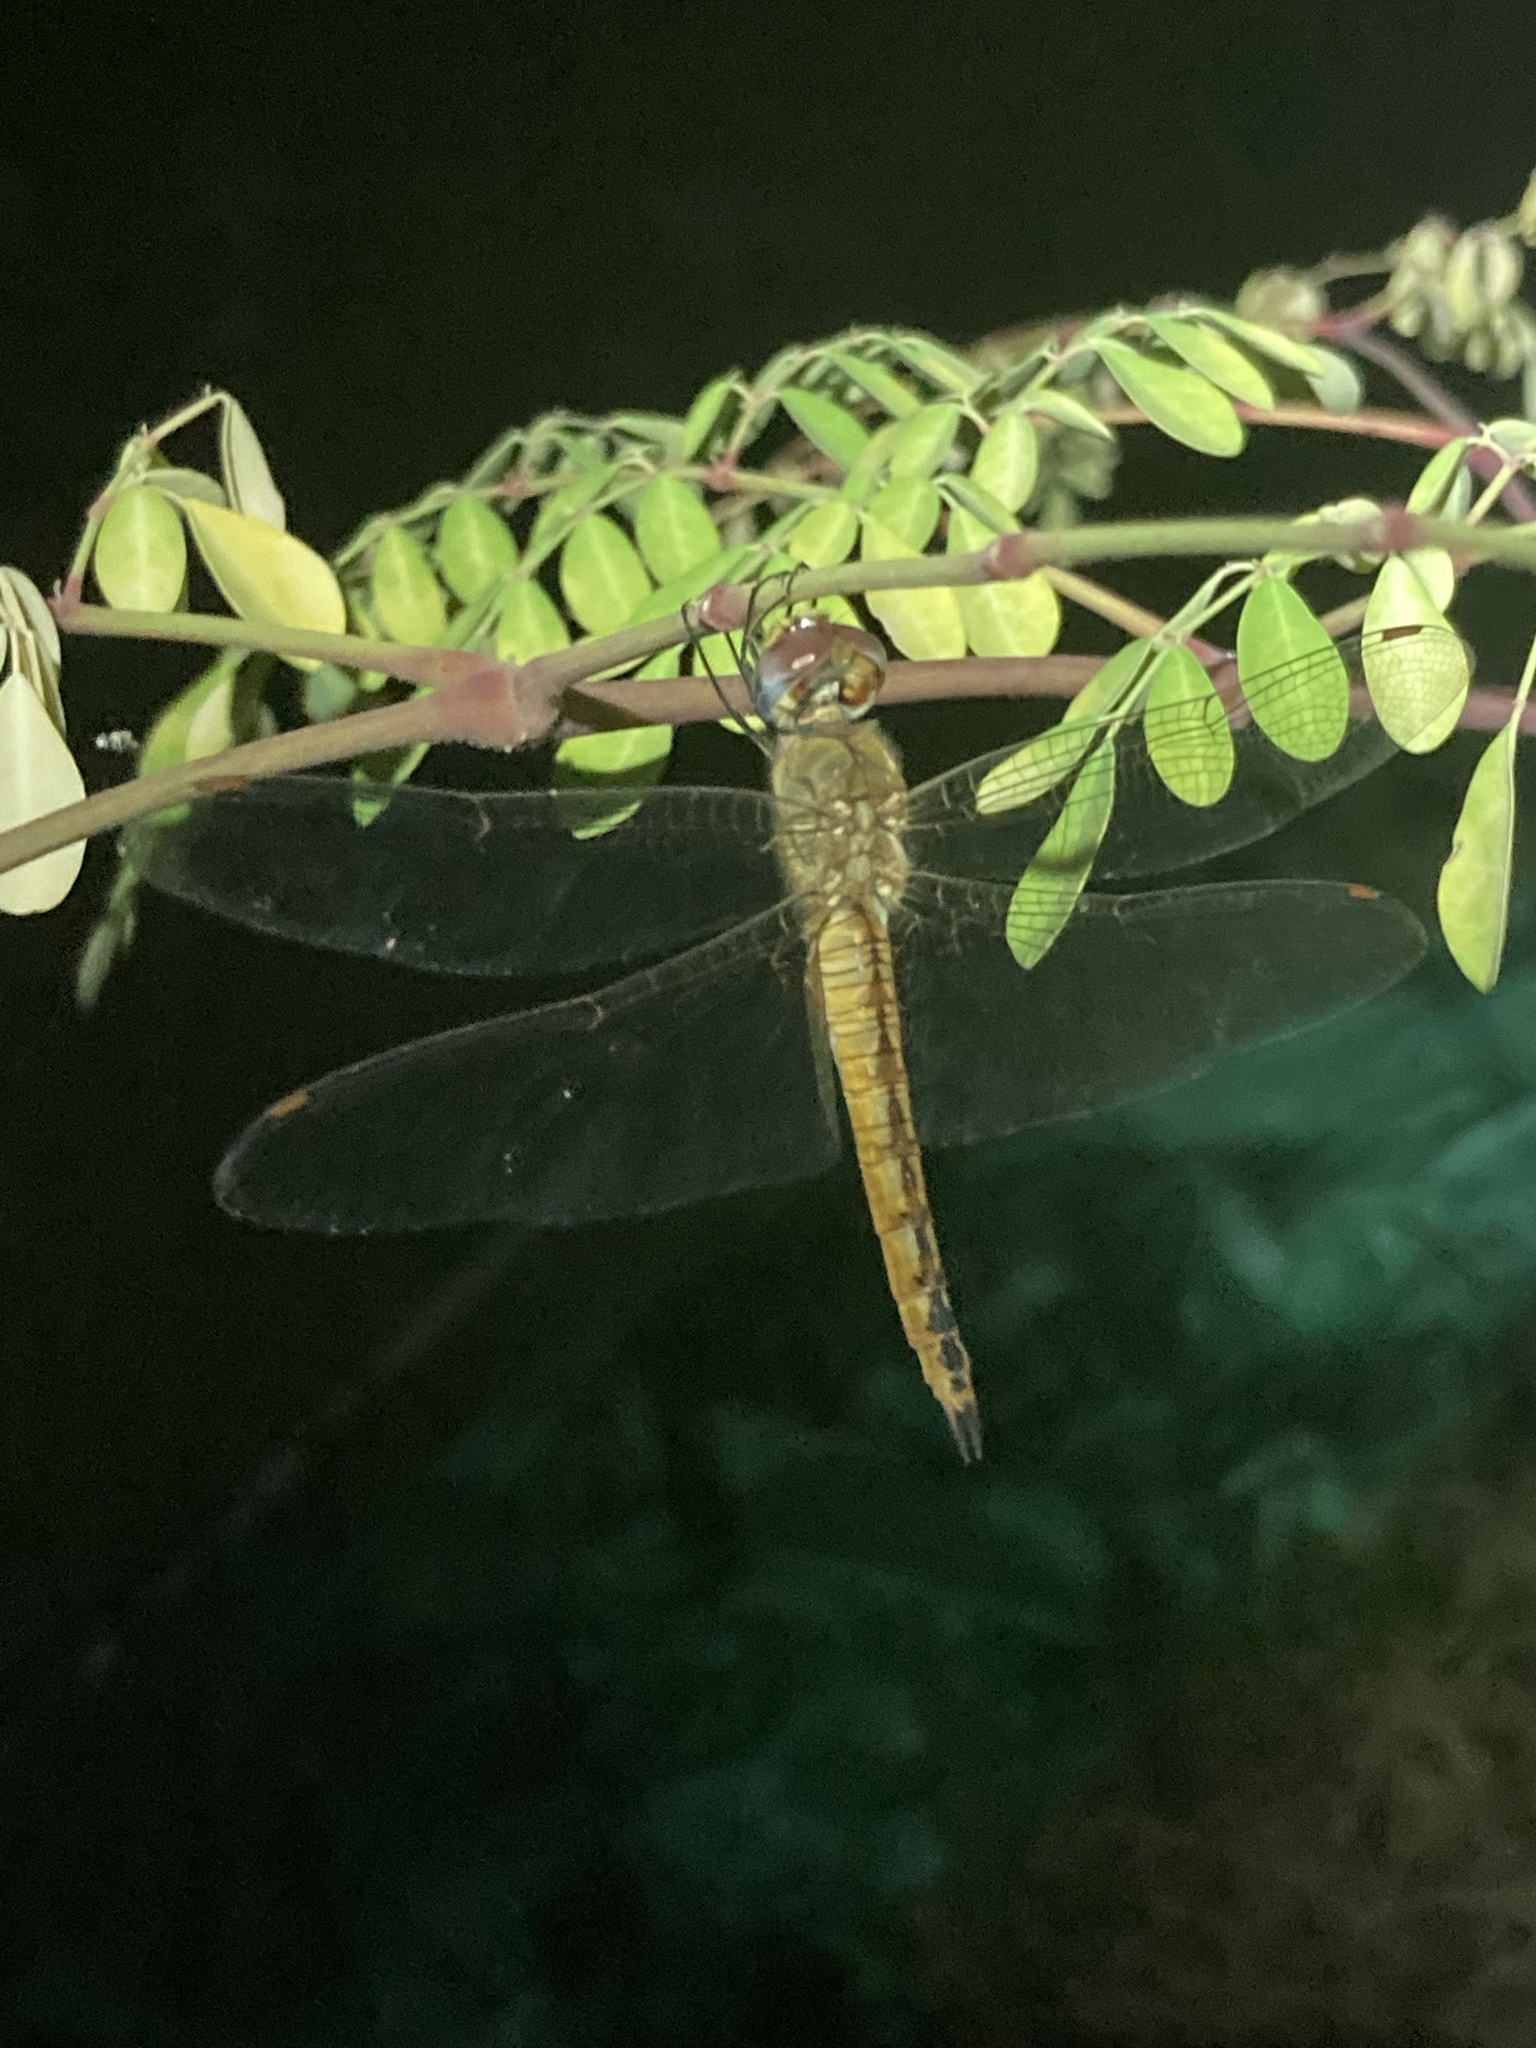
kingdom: Animalia
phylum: Arthropoda
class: Insecta
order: Odonata
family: Libellulidae
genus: Pantala
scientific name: Pantala flavescens
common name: Wandering glider
